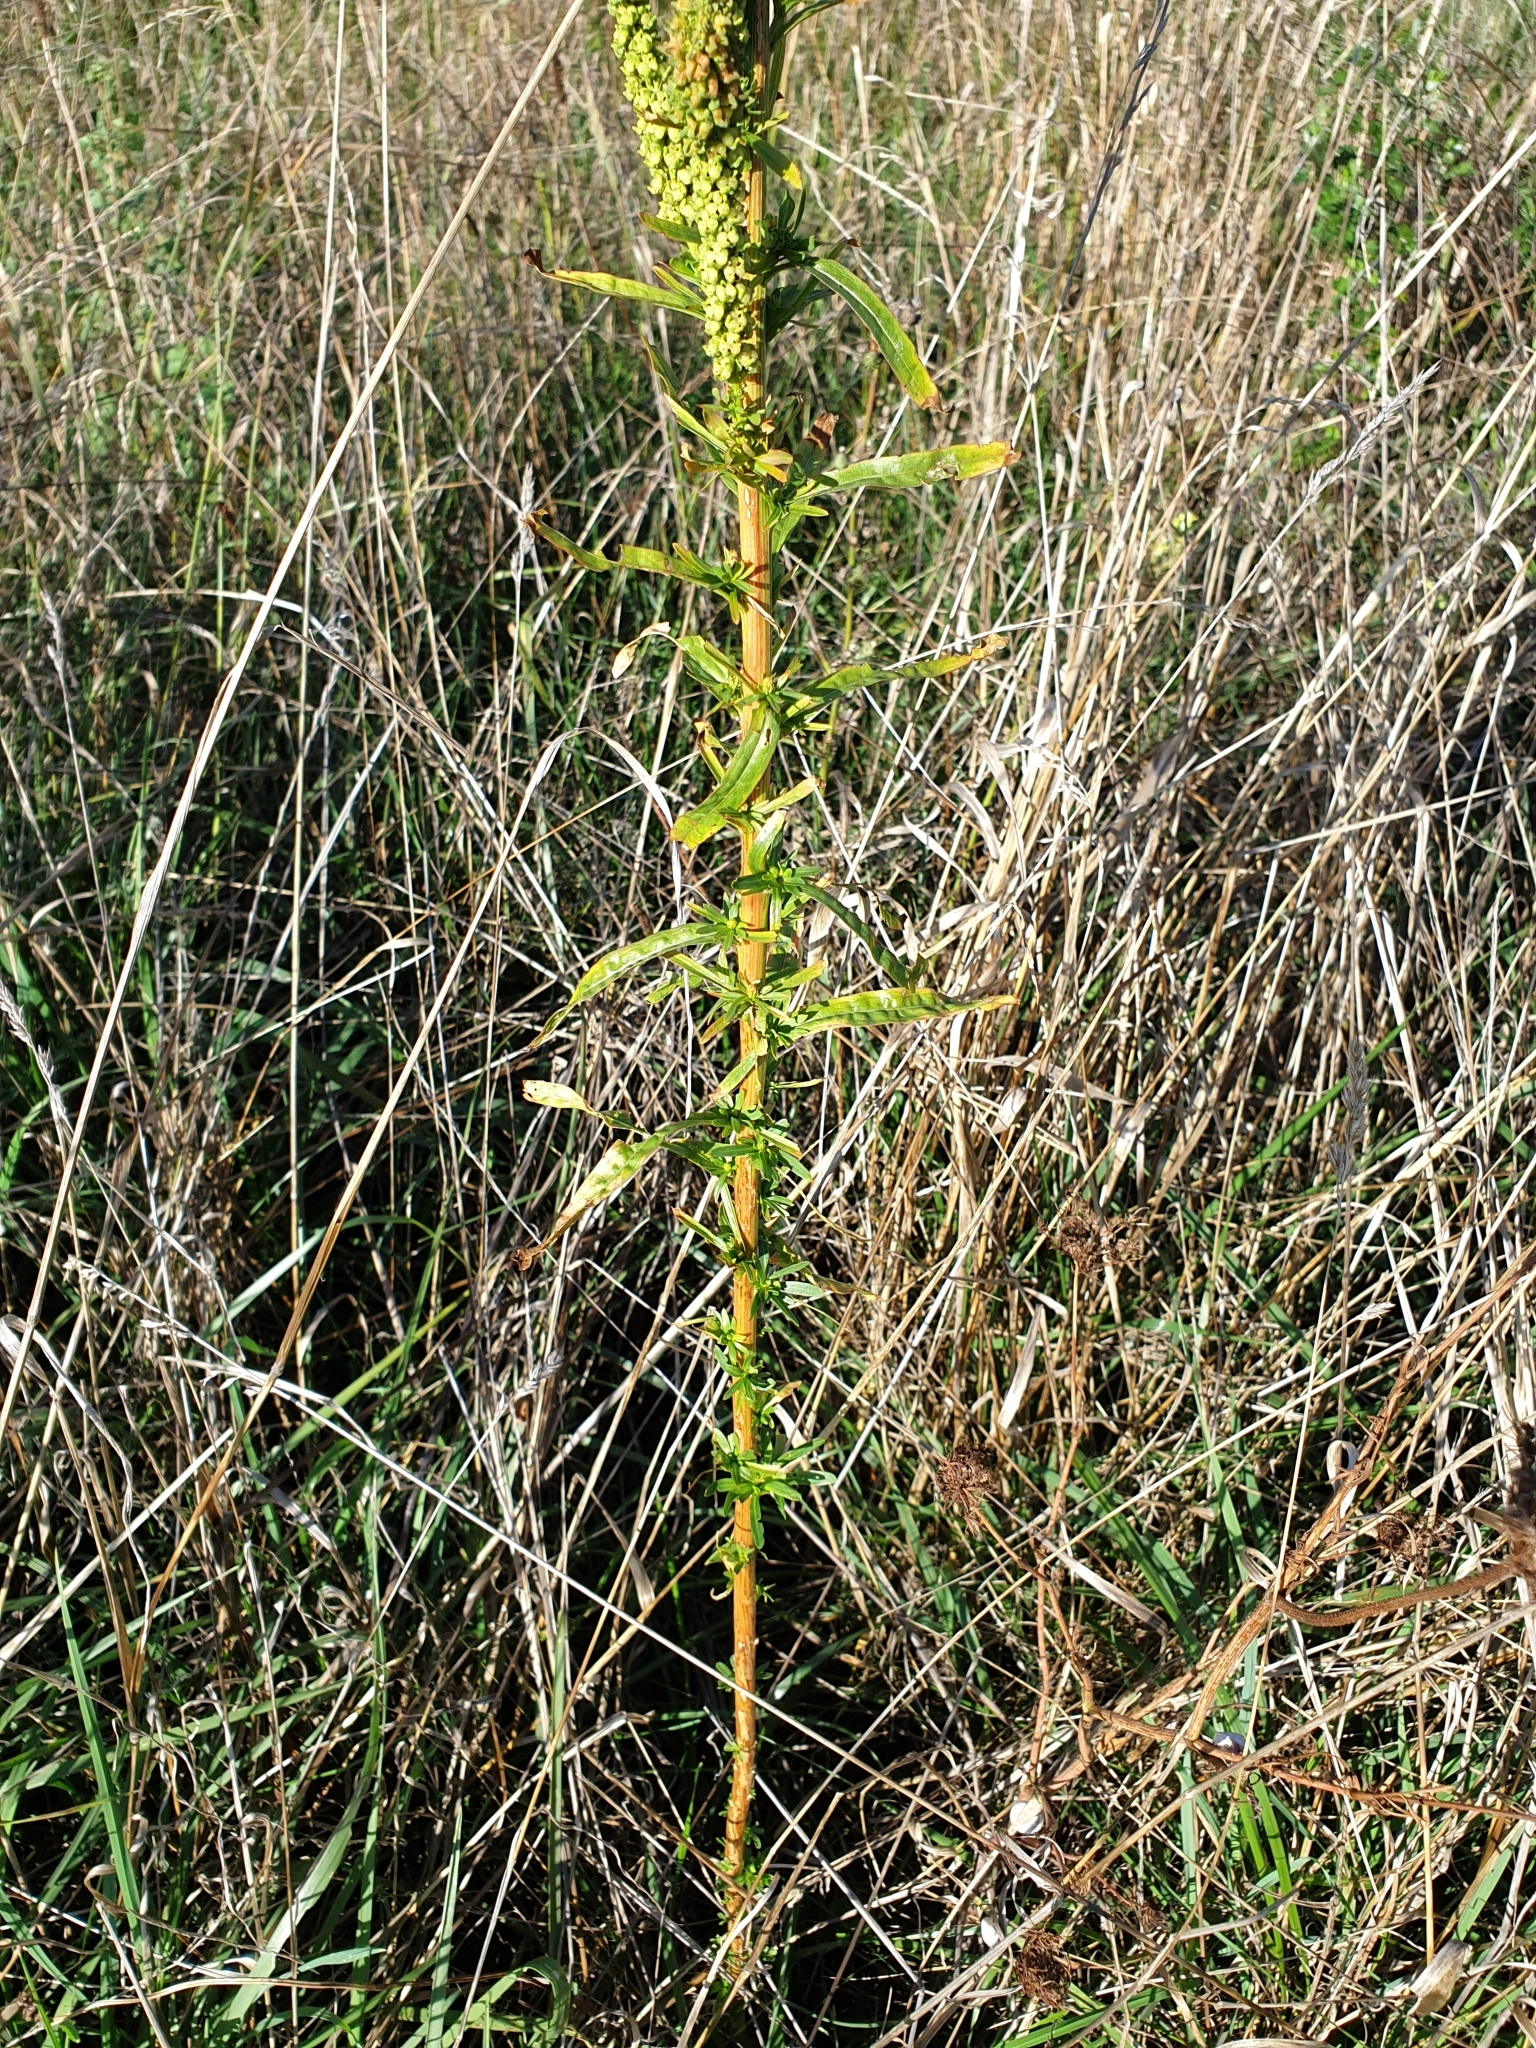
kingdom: Plantae
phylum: Tracheophyta
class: Magnoliopsida
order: Brassicales
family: Resedaceae
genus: Reseda
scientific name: Reseda luteola
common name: Weld
